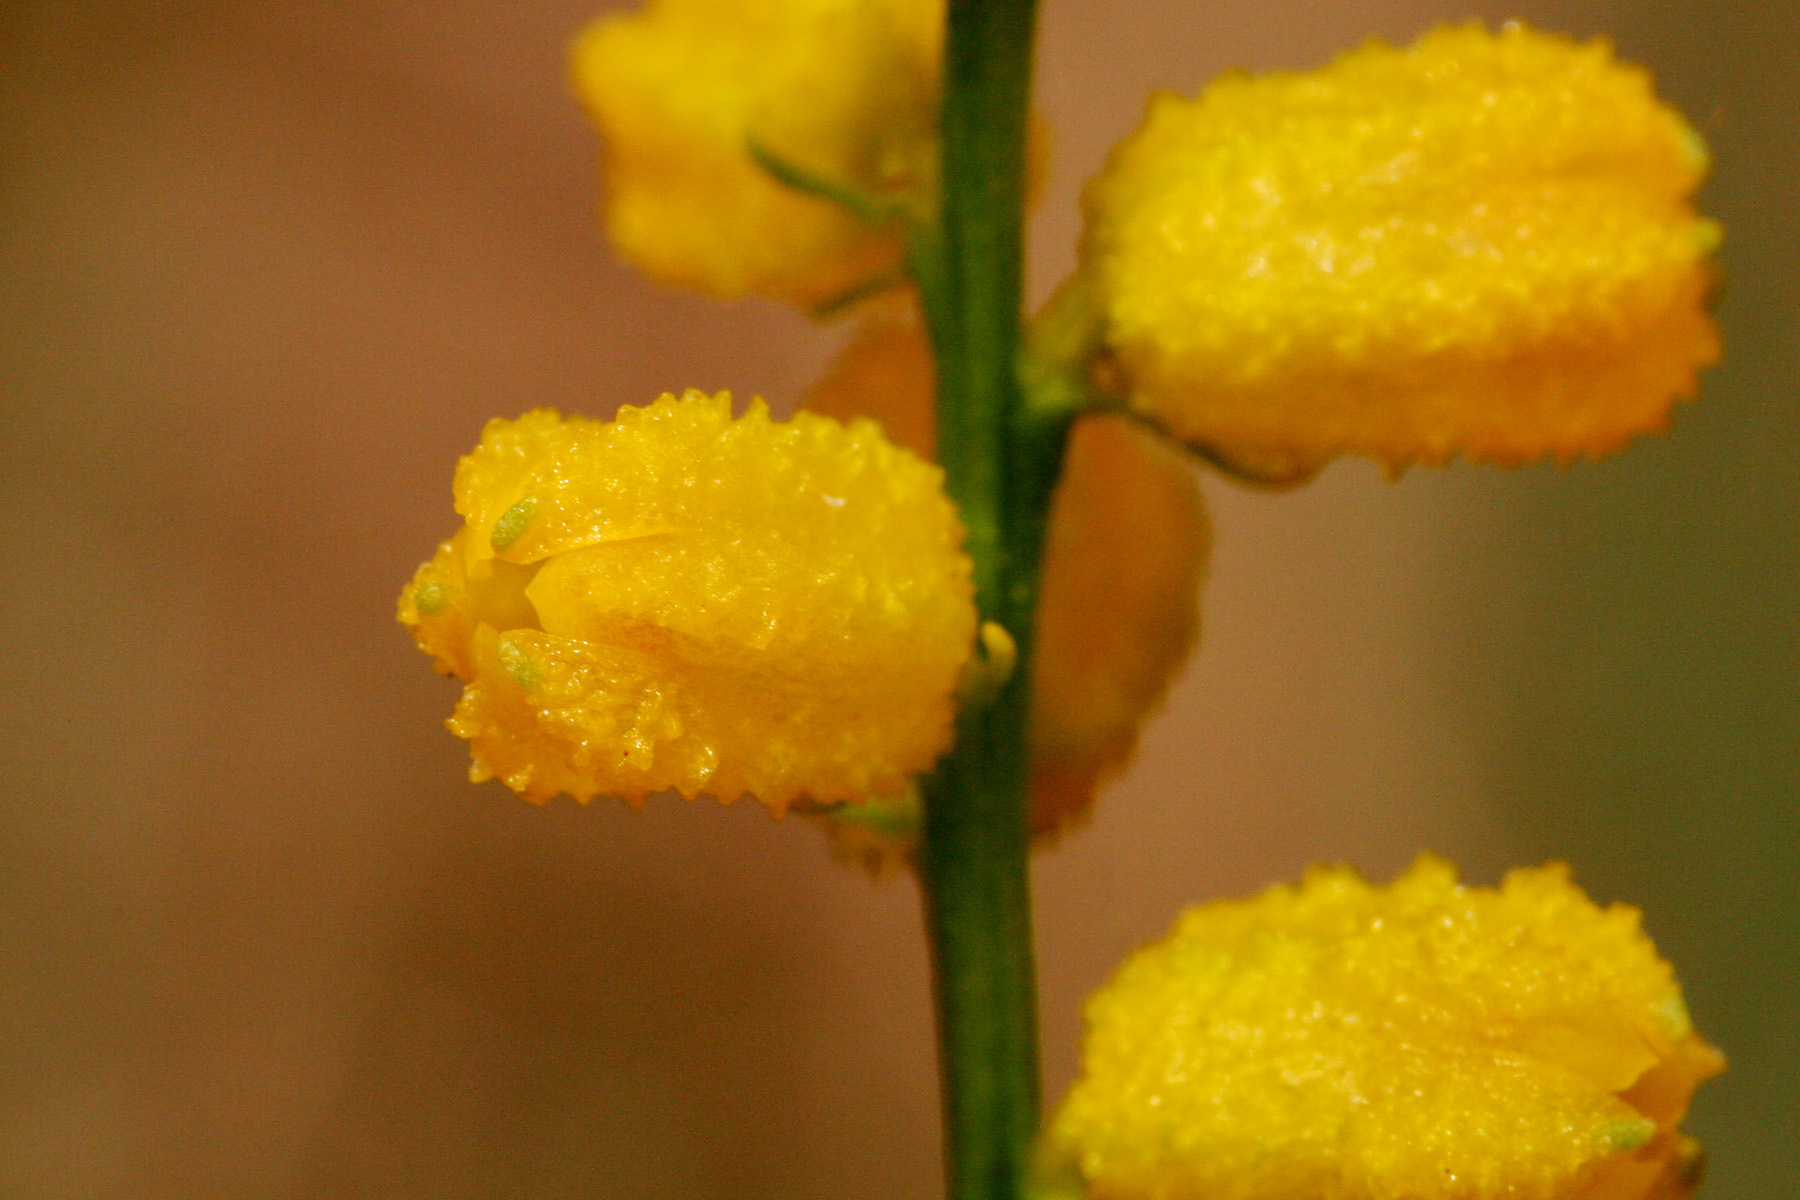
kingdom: Plantae
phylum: Tracheophyta
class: Liliopsida
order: Dioscoreales
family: Nartheciaceae
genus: Aletris
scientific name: Aletris aurea
